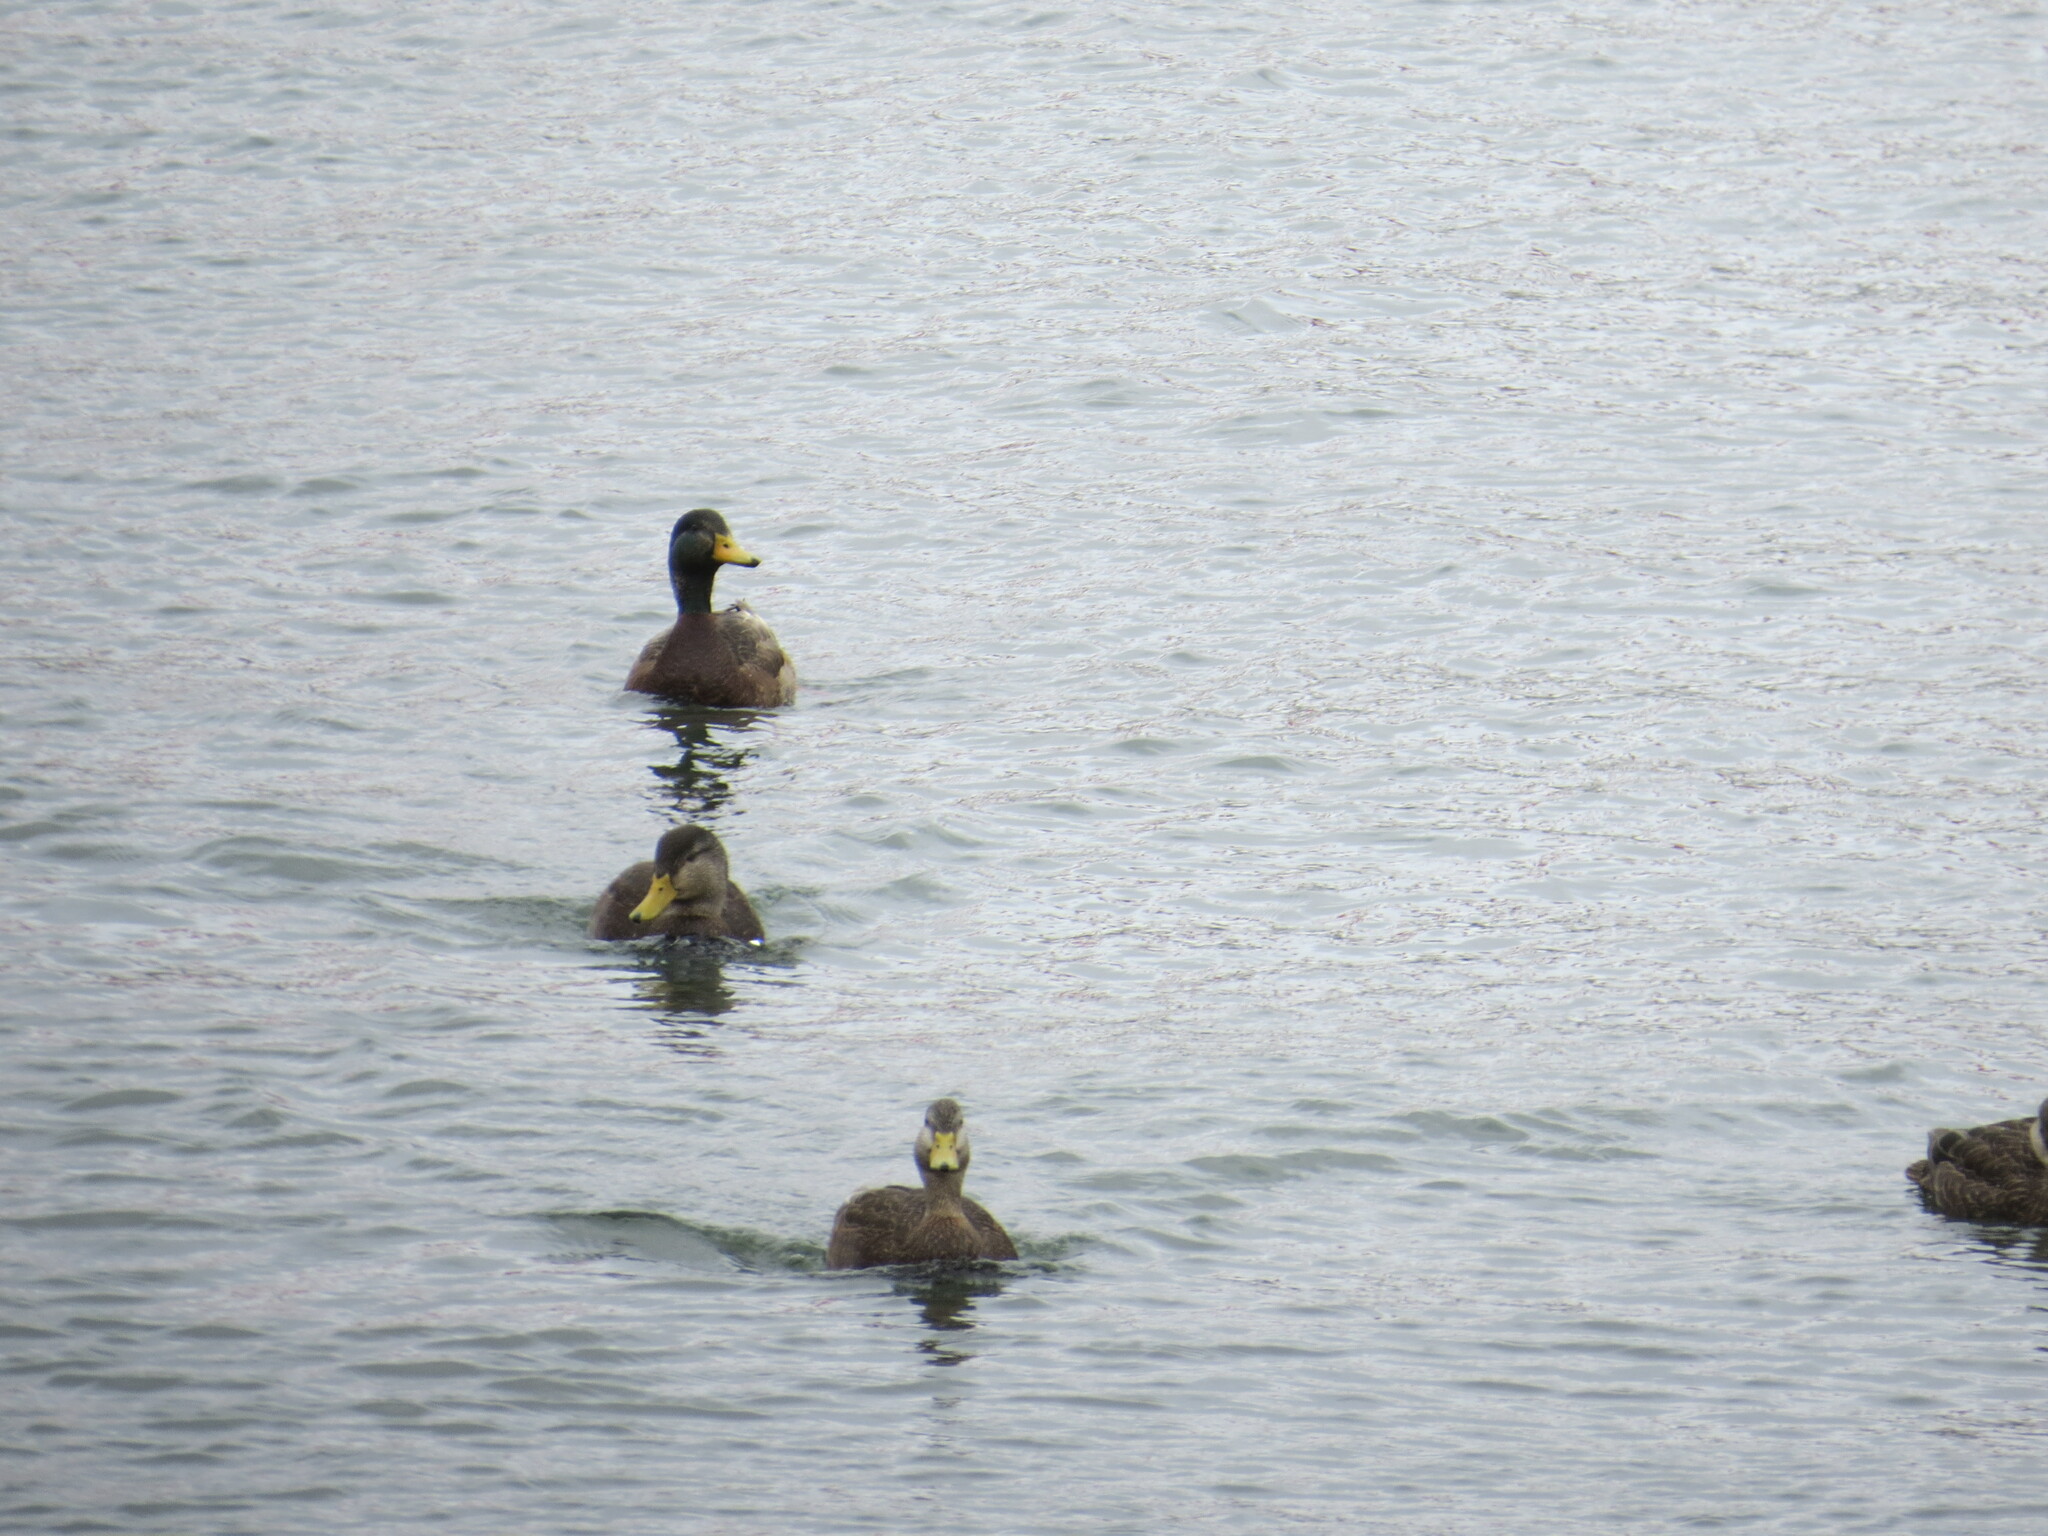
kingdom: Animalia
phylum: Chordata
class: Aves
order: Anseriformes
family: Anatidae
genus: Anas
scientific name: Anas rubripes
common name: American black duck
